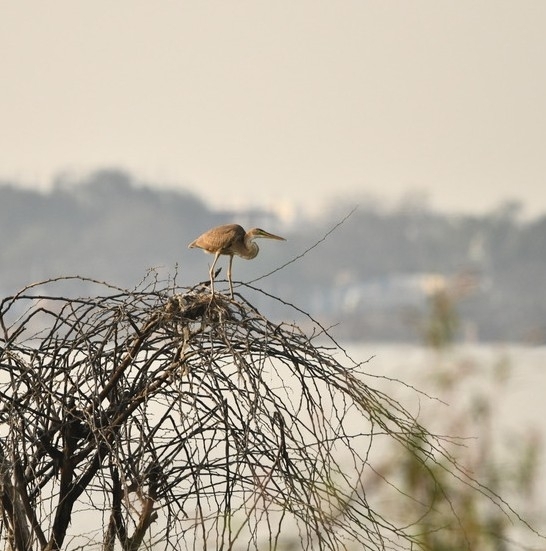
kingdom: Animalia
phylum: Chordata
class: Aves
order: Pelecaniformes
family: Ardeidae
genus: Ardea
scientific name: Ardea purpurea
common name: Purple heron
